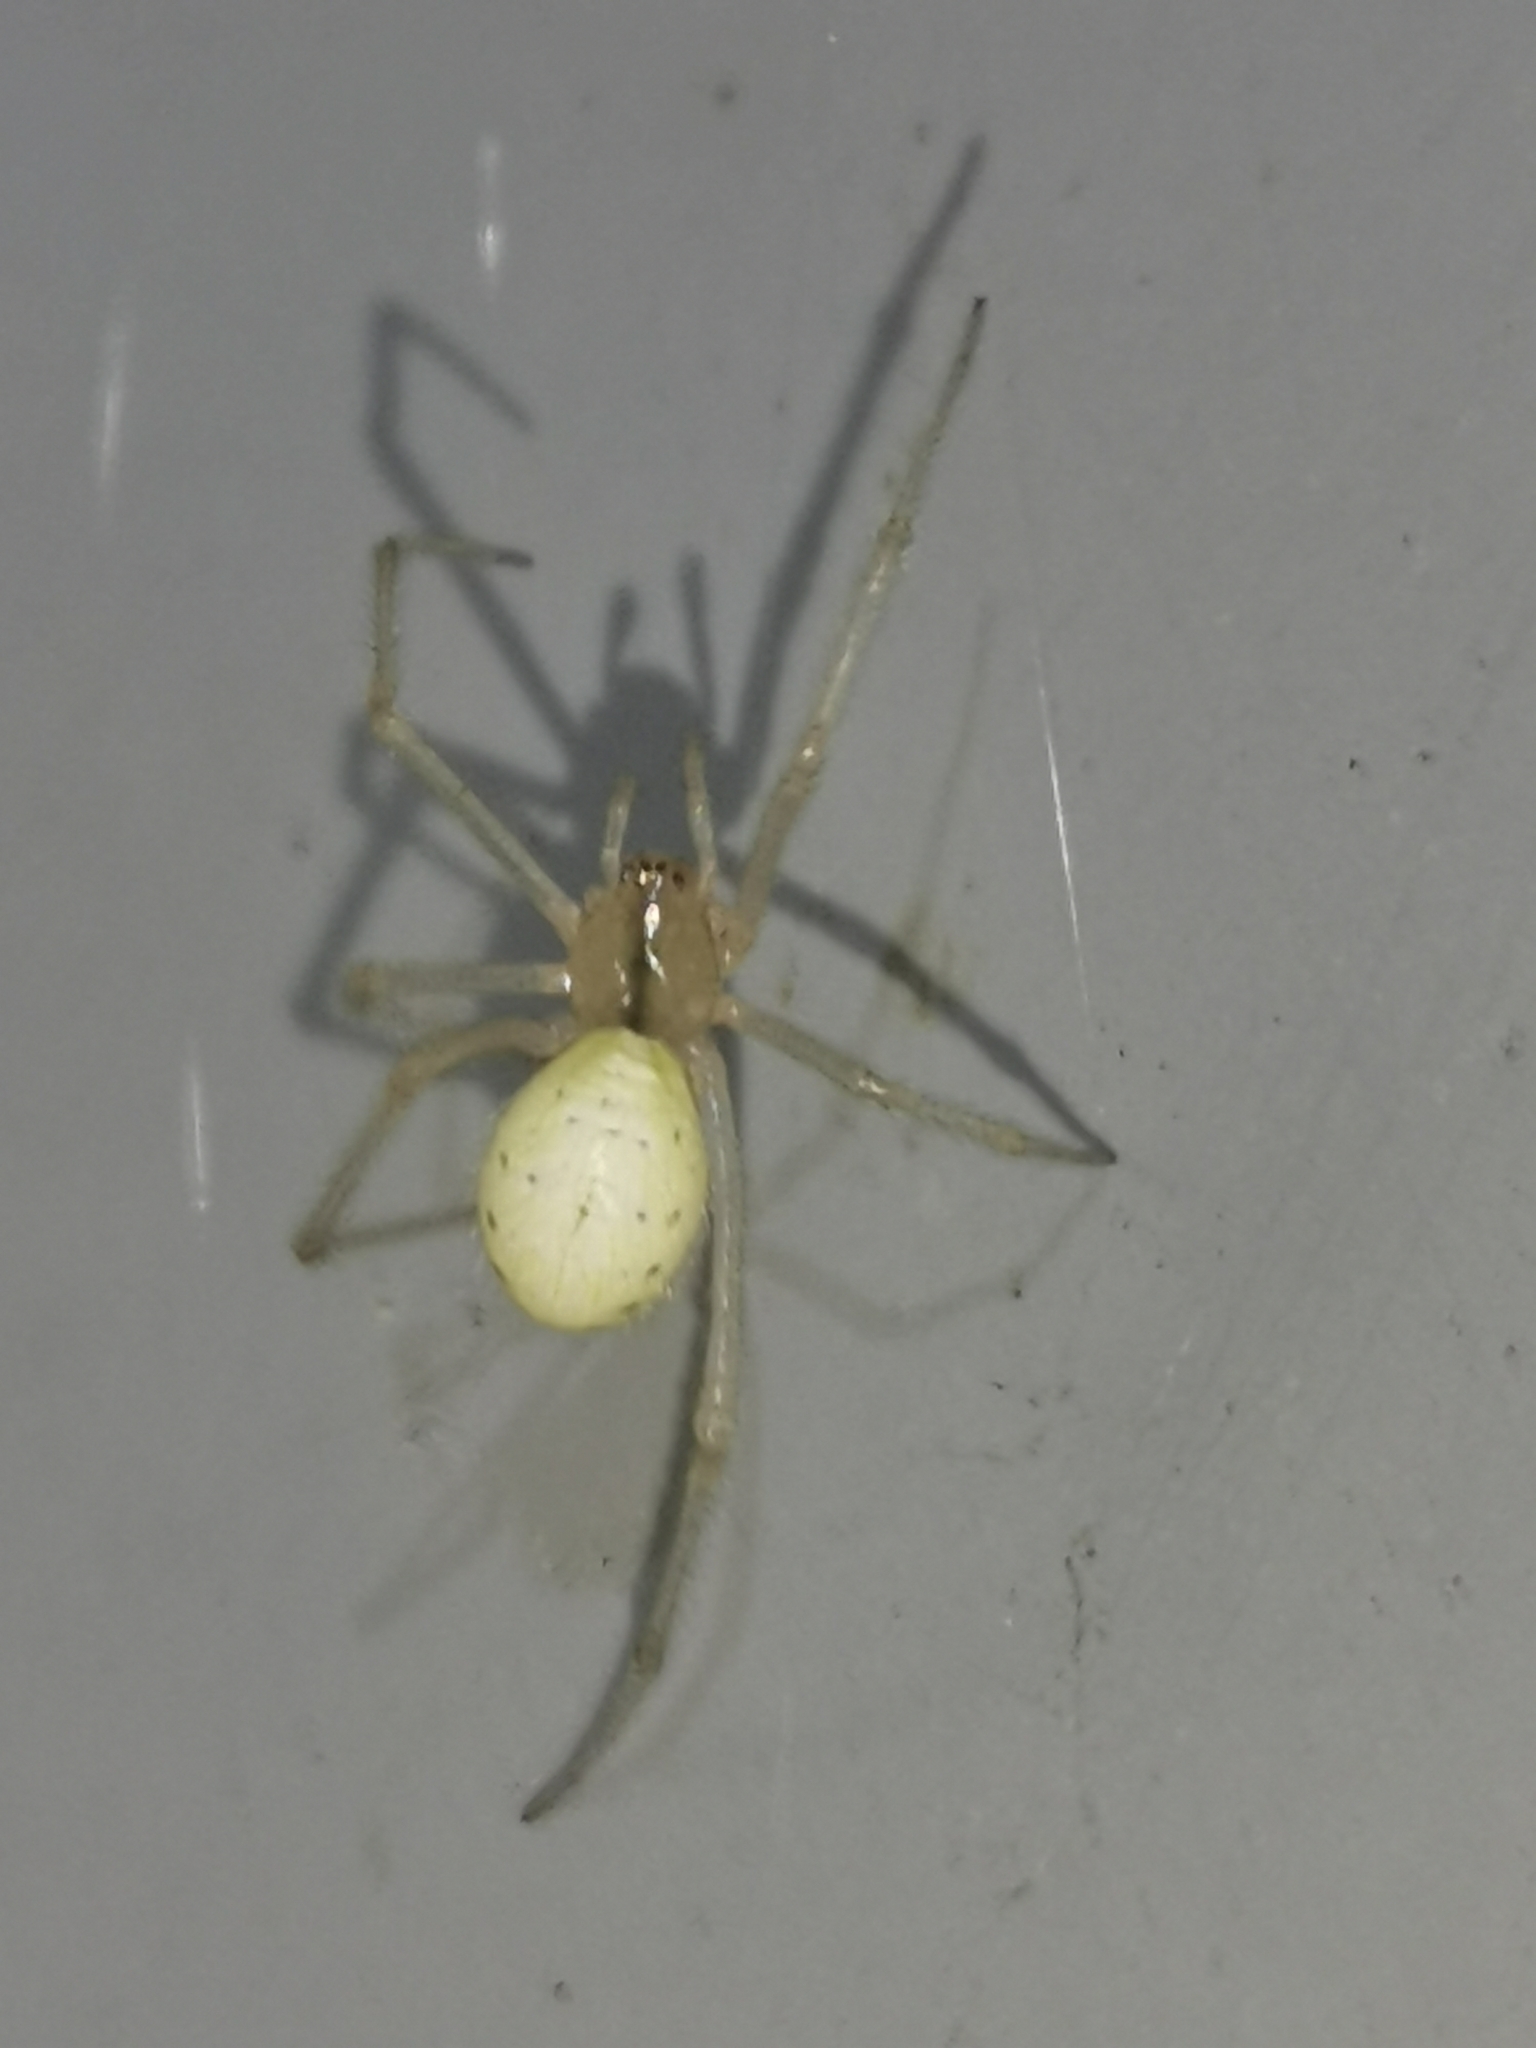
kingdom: Animalia
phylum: Arthropoda
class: Arachnida
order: Araneae
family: Theridiidae
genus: Enoplognatha
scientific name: Enoplognatha ovata
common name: Common candy-striped spider
